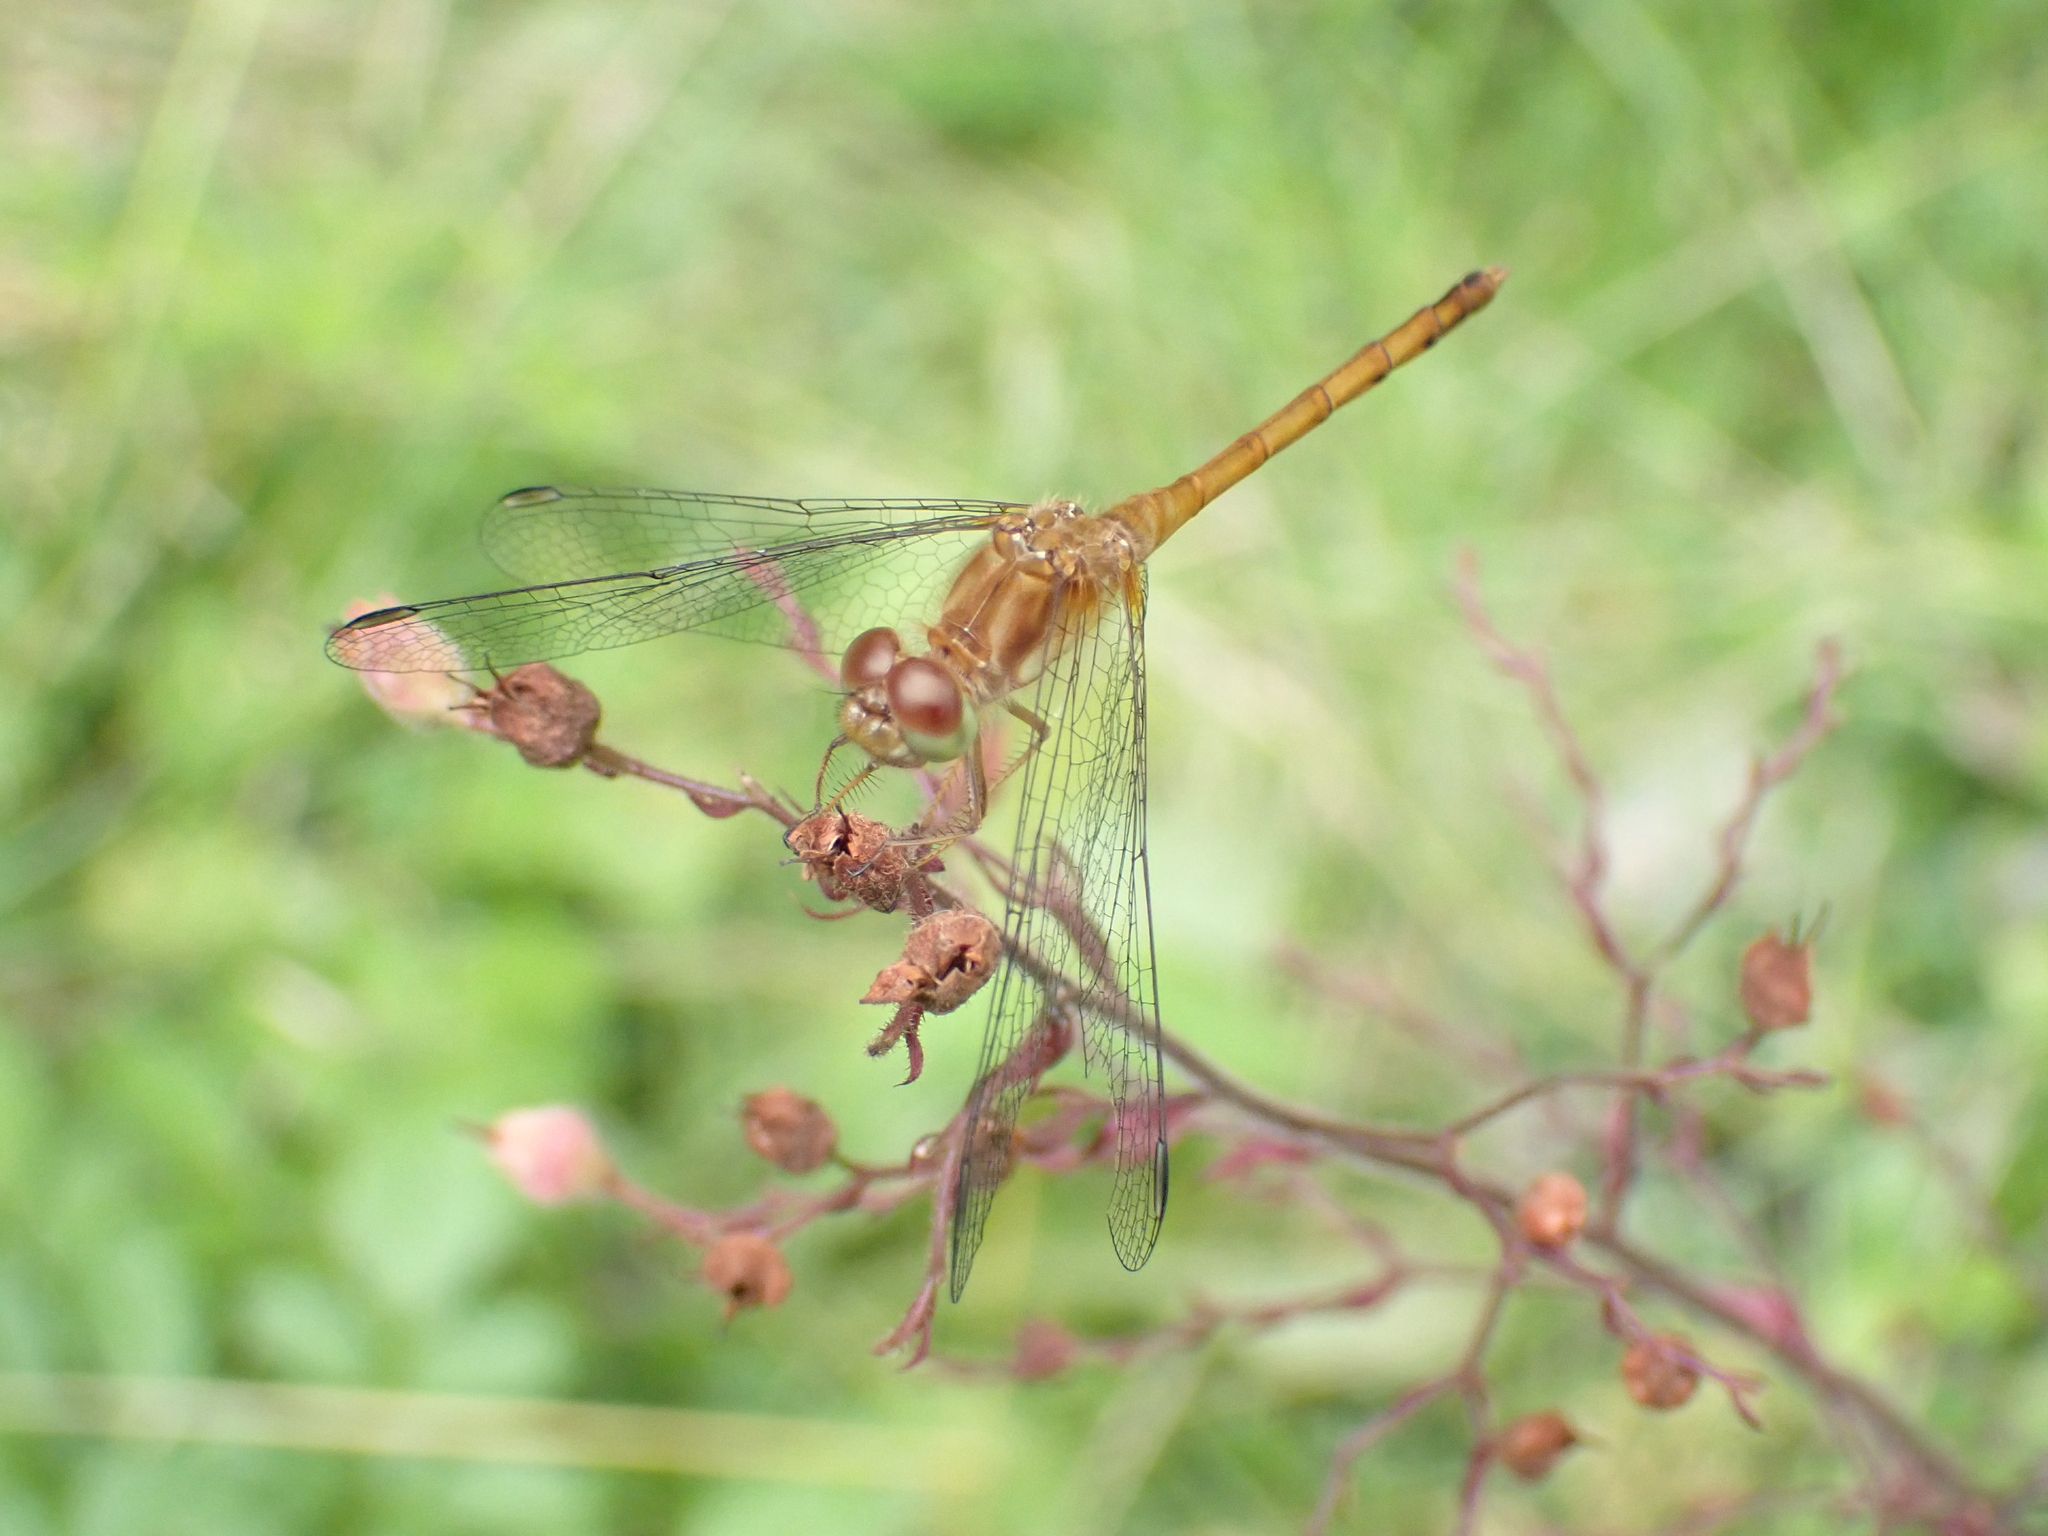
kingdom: Animalia
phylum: Arthropoda
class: Insecta
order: Odonata
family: Libellulidae
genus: Sympetrum
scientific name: Sympetrum vicinum
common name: Autumn meadowhawk
